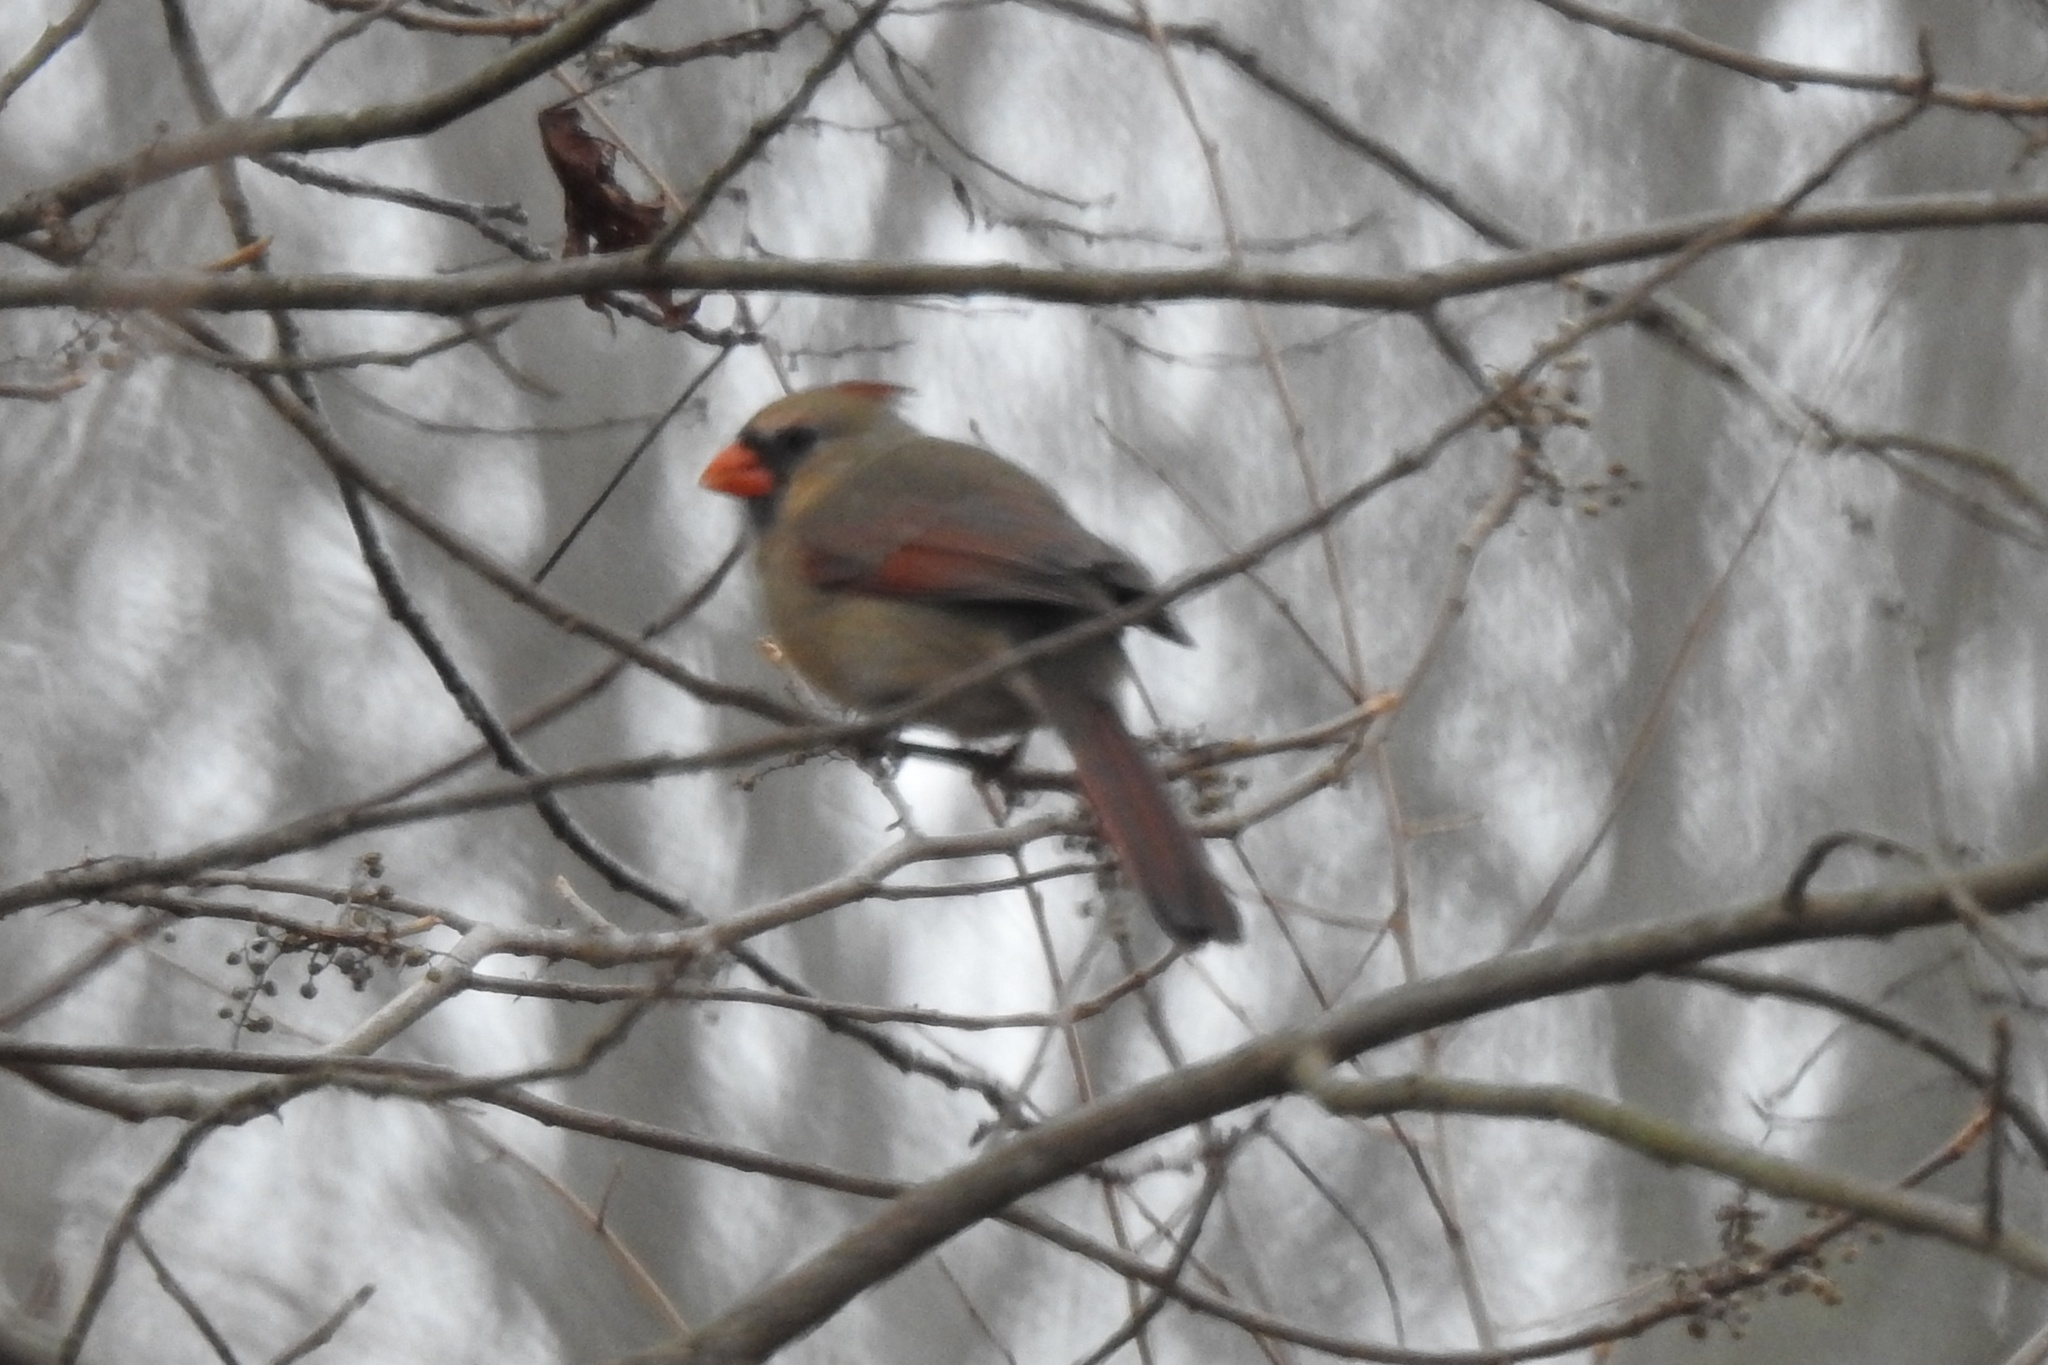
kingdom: Animalia
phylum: Chordata
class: Aves
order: Passeriformes
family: Cardinalidae
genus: Cardinalis
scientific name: Cardinalis cardinalis
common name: Northern cardinal
